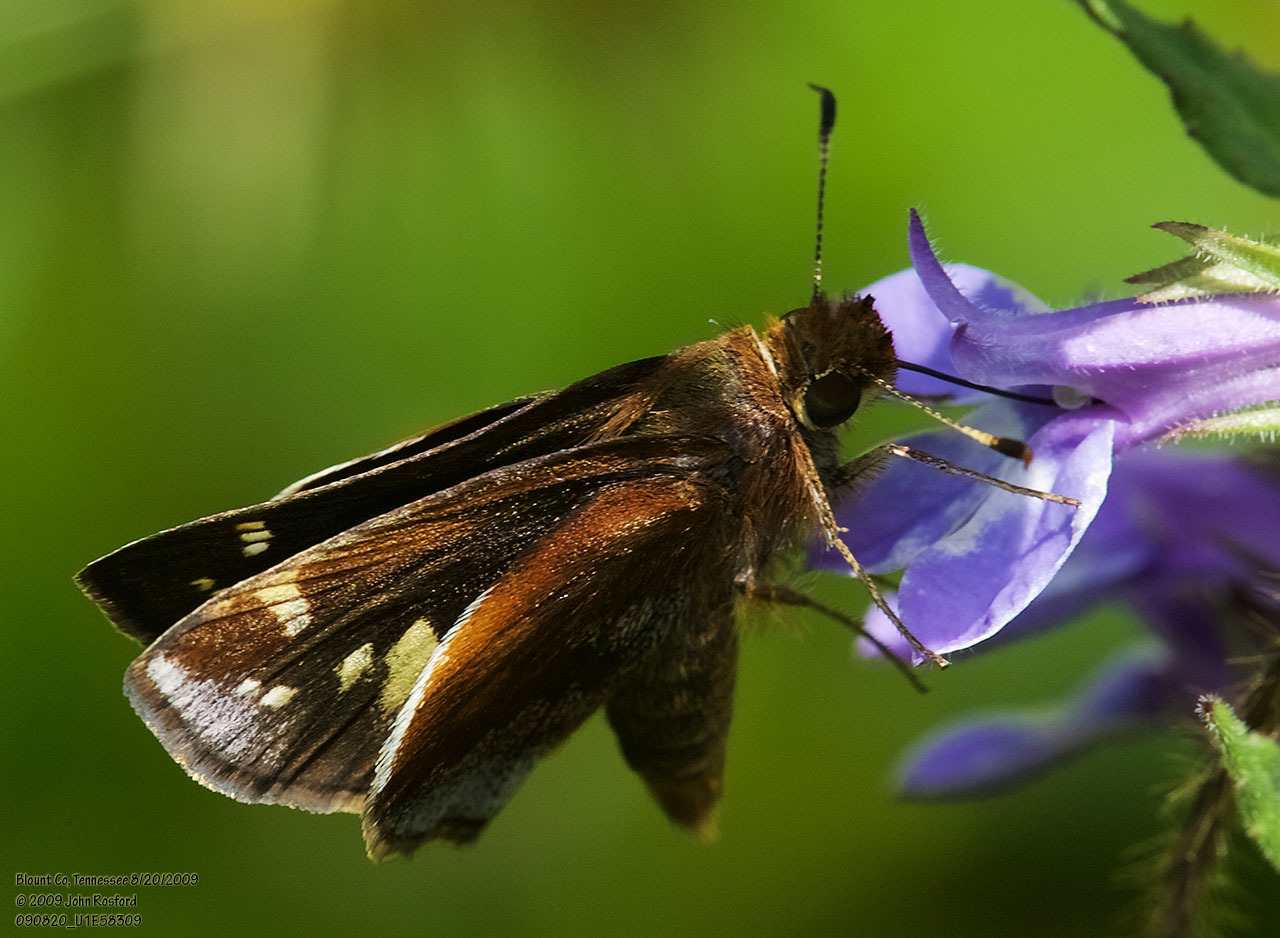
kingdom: Animalia
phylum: Arthropoda
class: Insecta
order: Lepidoptera
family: Hesperiidae
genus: Lon
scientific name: Lon zabulon
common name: Zabulon skipper
